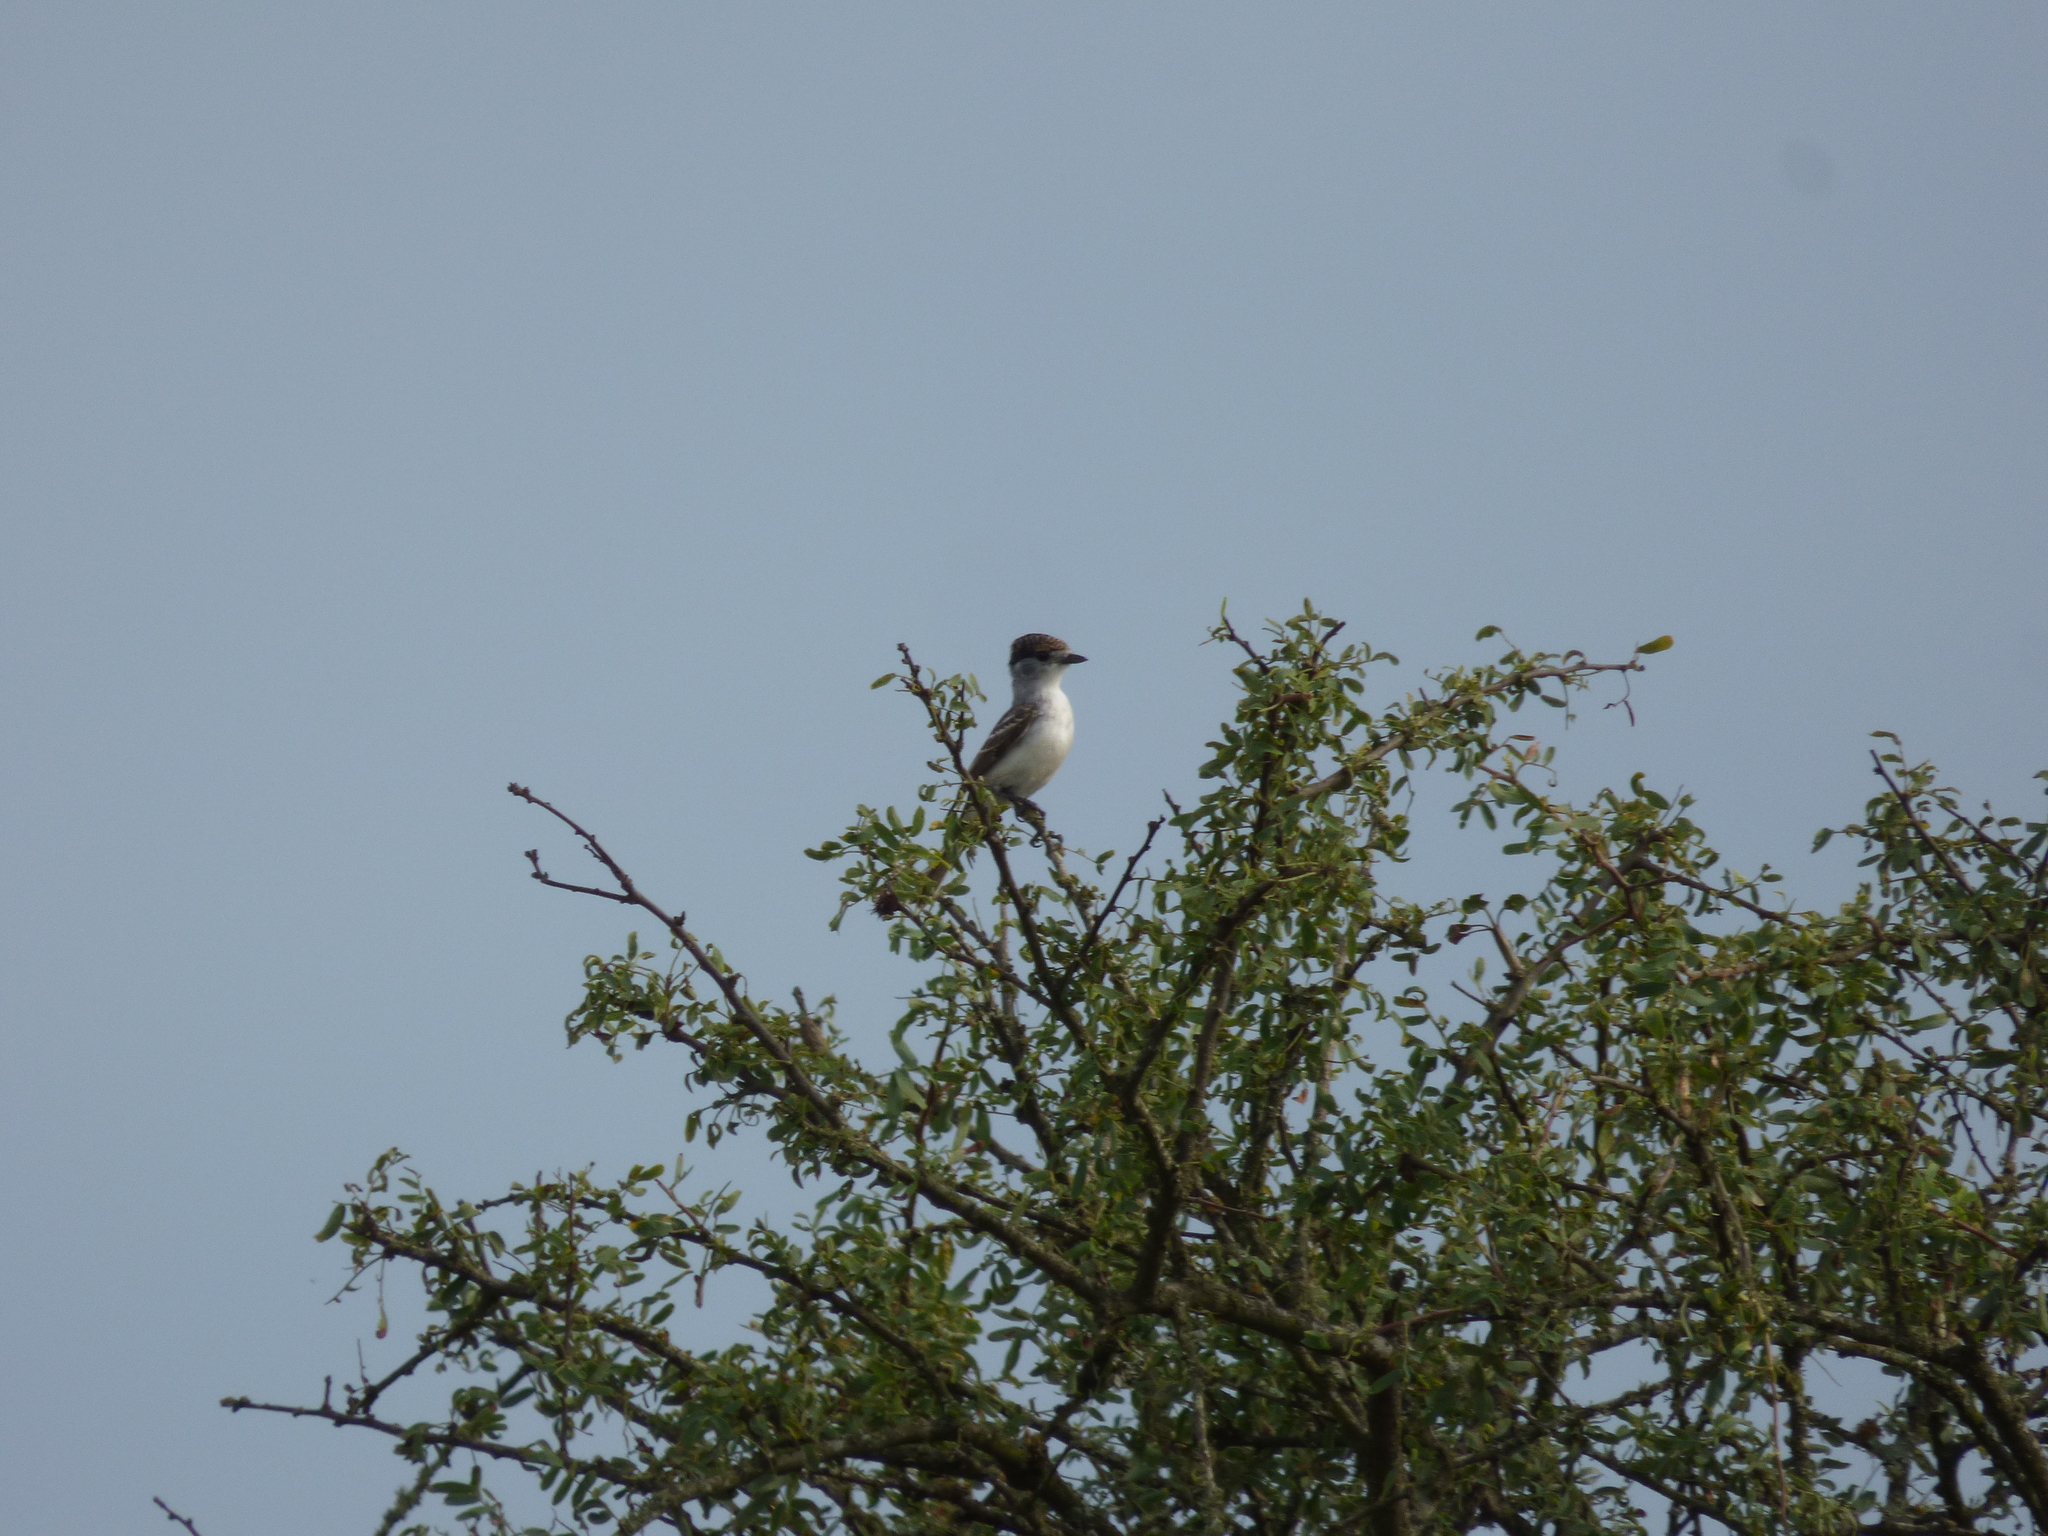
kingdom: Animalia
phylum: Chordata
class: Aves
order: Passeriformes
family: Cotingidae
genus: Xenopsaris
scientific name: Xenopsaris albinucha
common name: White-naped xenopsaris
